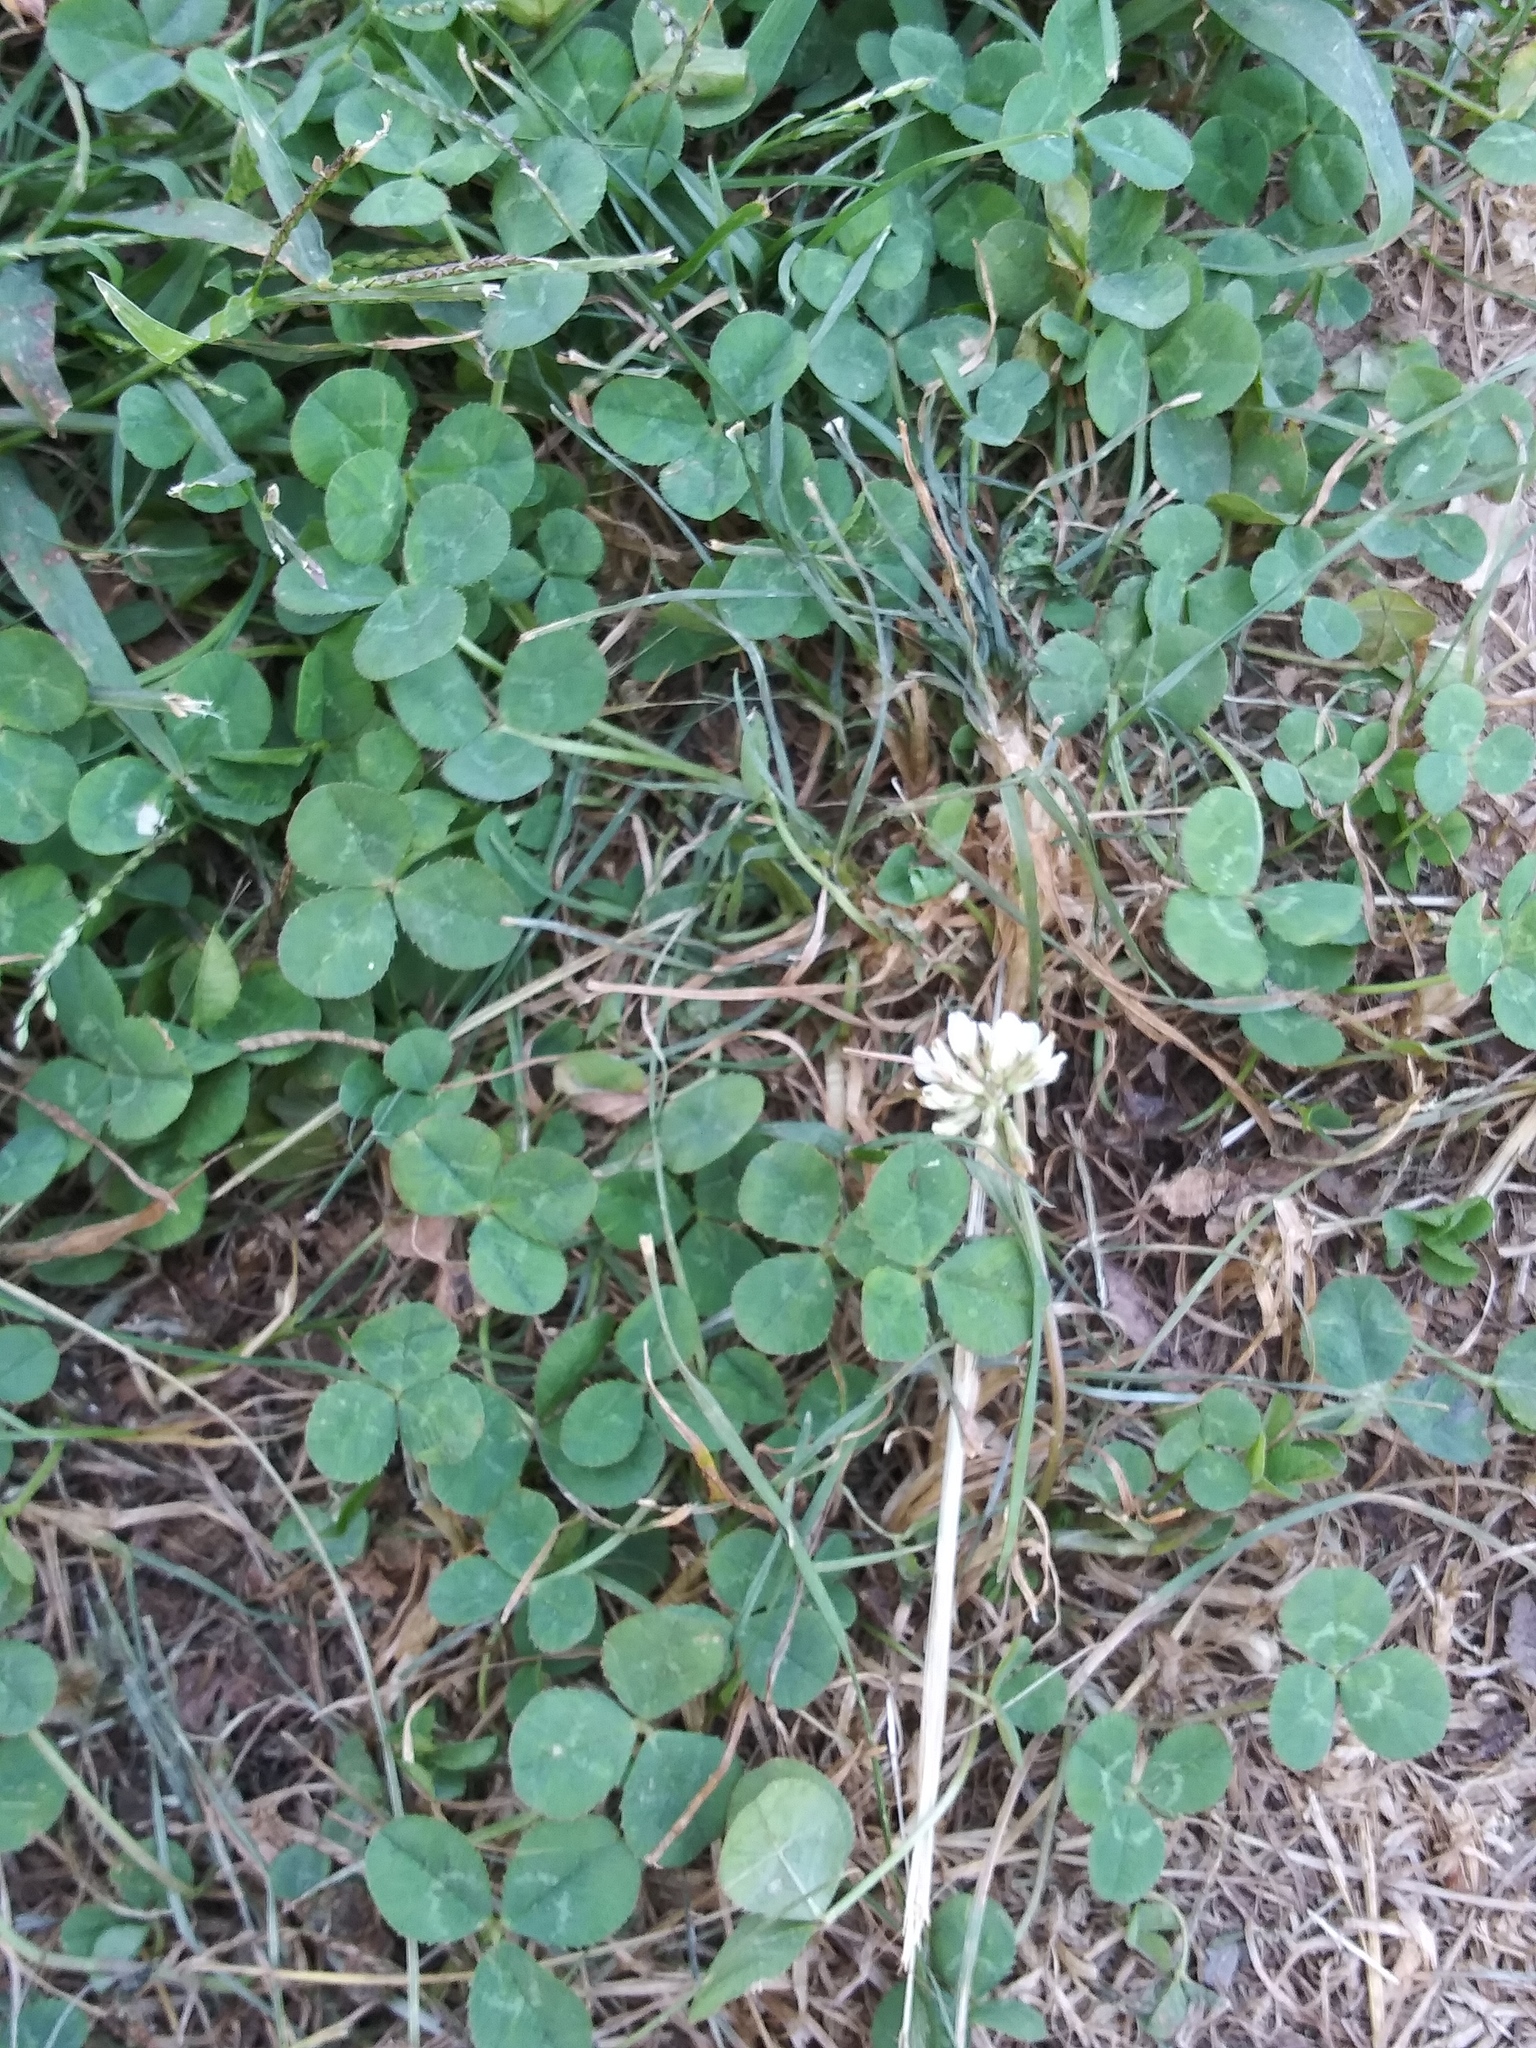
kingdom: Plantae
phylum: Tracheophyta
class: Magnoliopsida
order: Fabales
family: Fabaceae
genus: Trifolium
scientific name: Trifolium repens
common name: White clover
